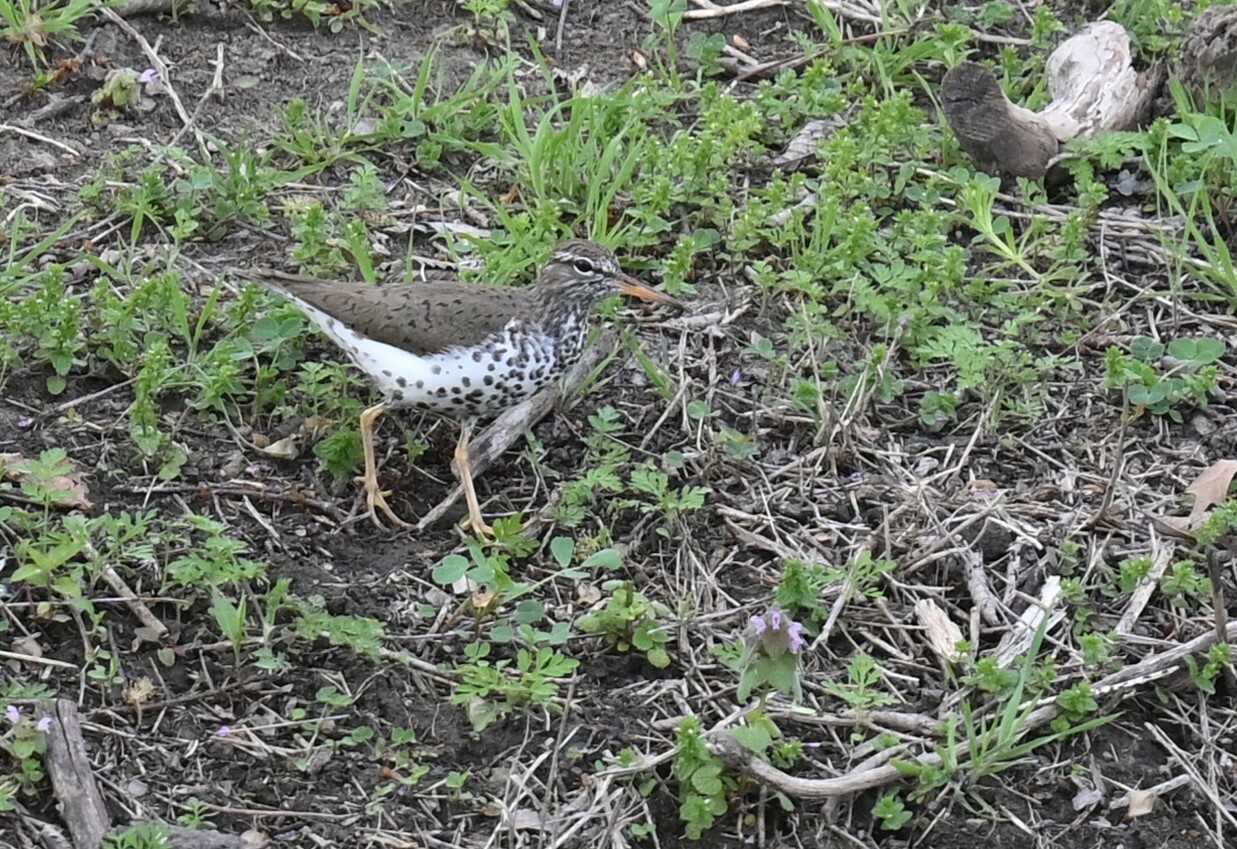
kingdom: Animalia
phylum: Chordata
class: Aves
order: Charadriiformes
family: Scolopacidae
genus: Actitis
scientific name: Actitis macularius
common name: Spotted sandpiper
